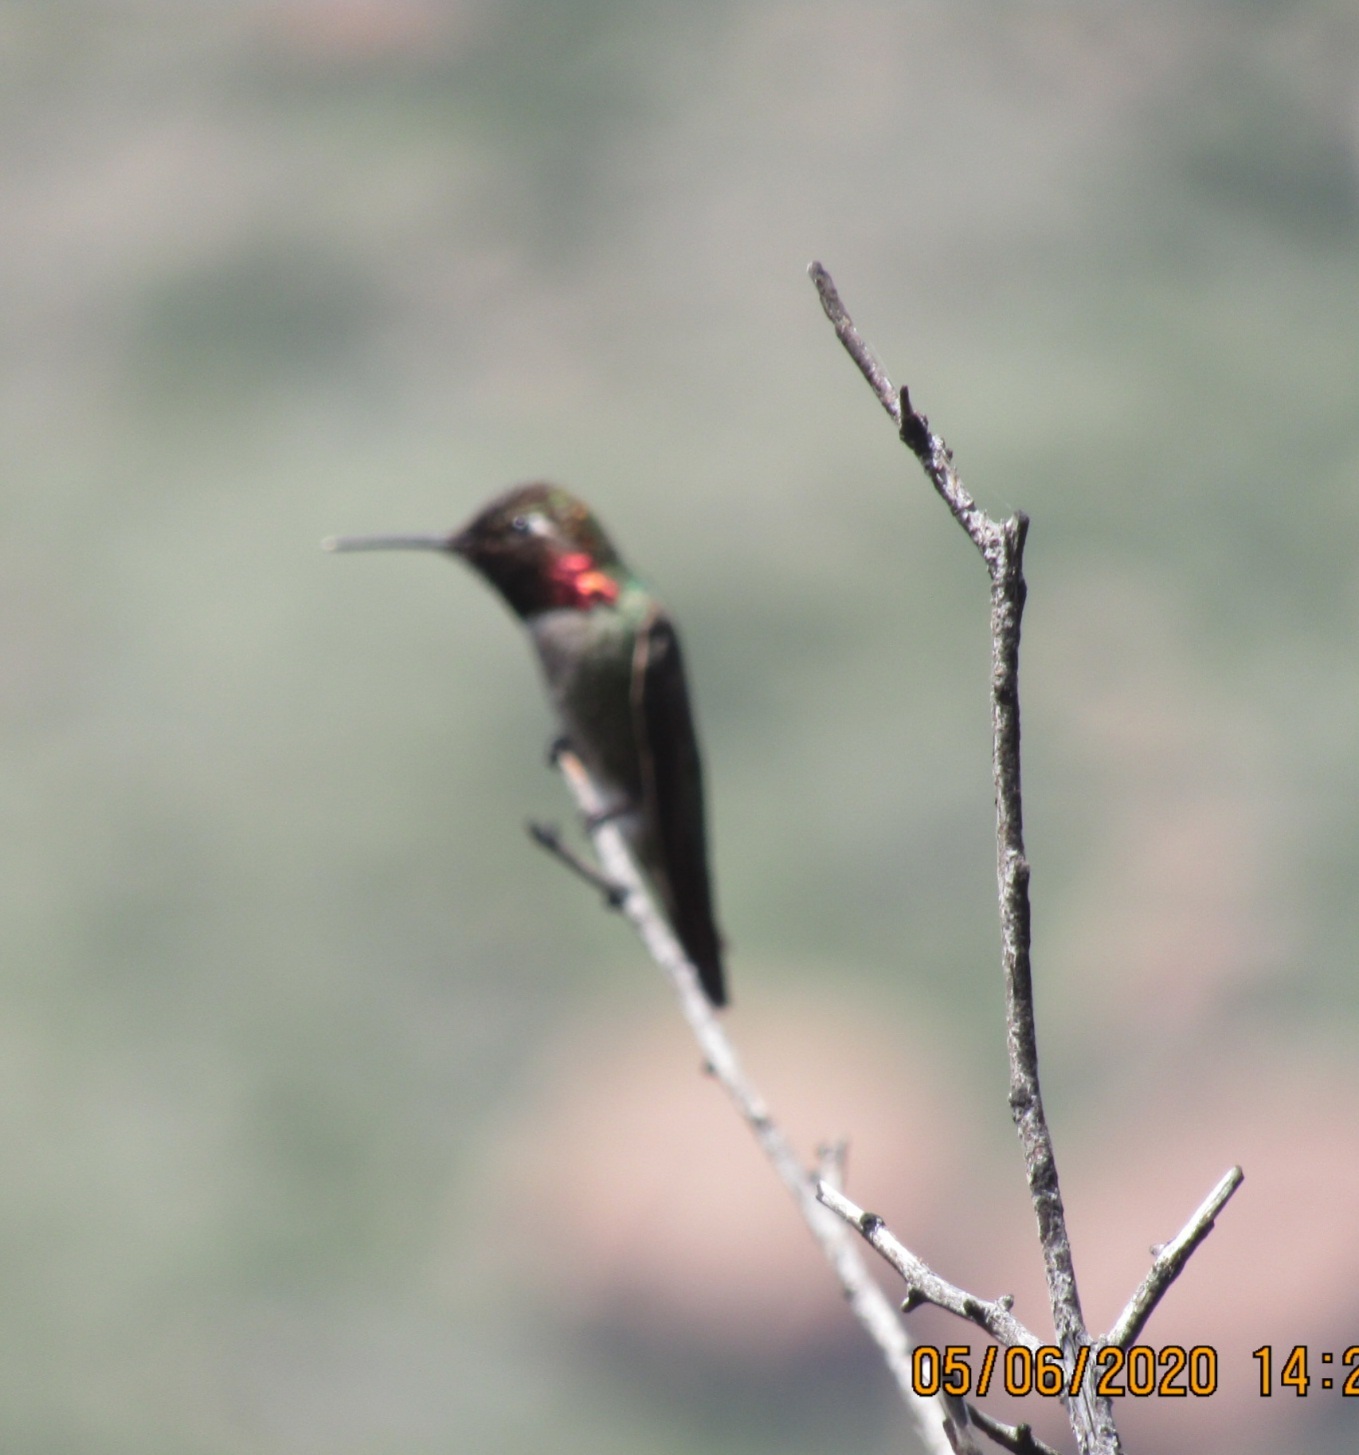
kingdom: Animalia
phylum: Chordata
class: Aves
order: Apodiformes
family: Trochilidae
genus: Calypte
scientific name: Calypte anna
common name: Anna's hummingbird
